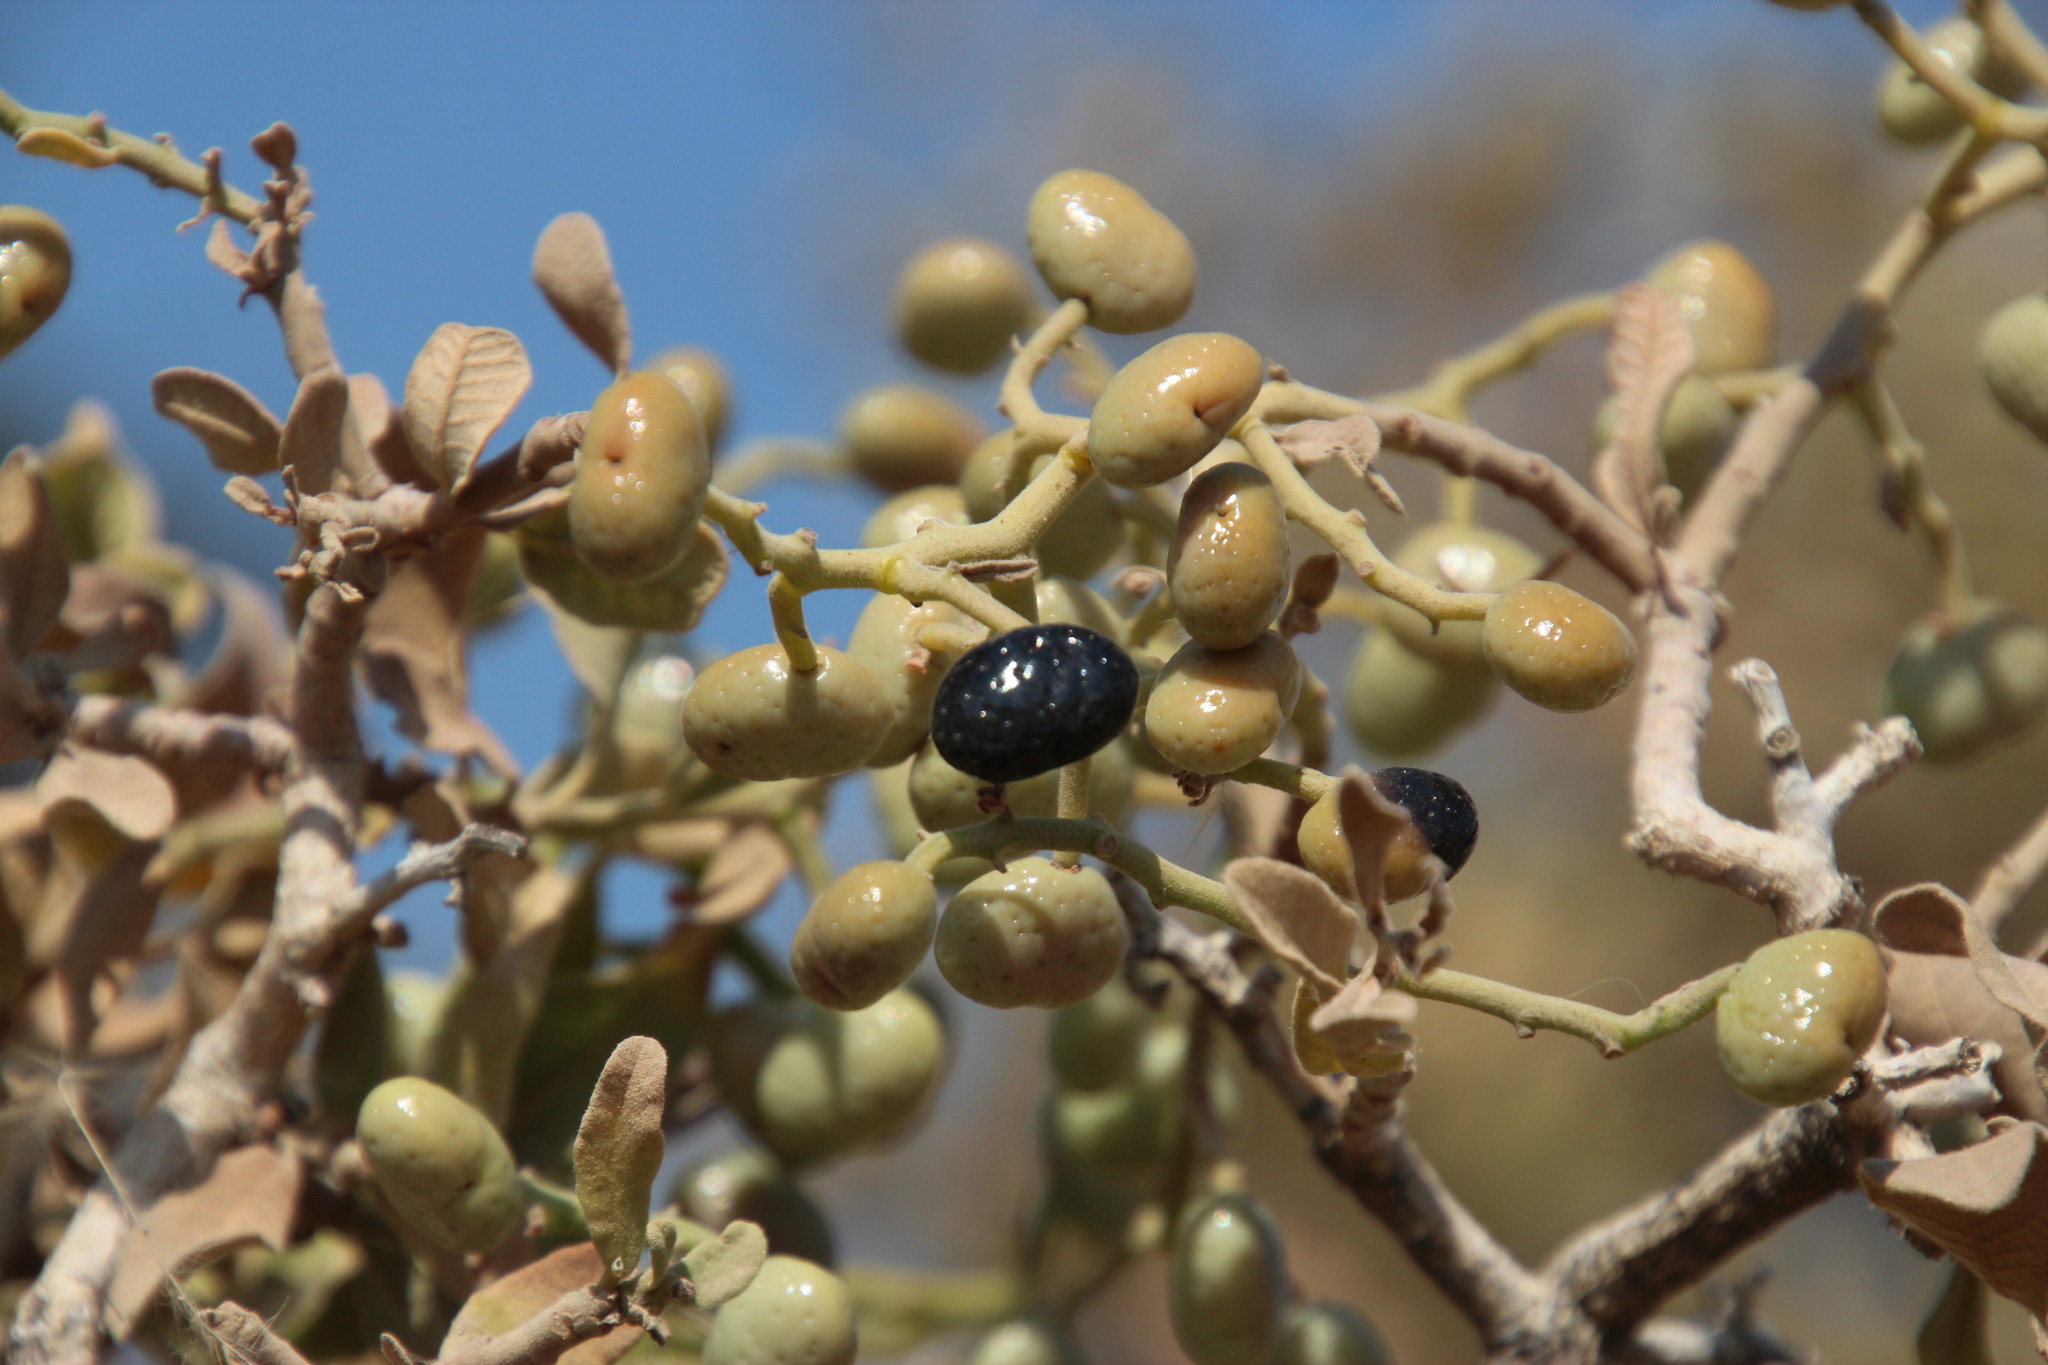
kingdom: Plantae
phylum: Tracheophyta
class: Magnoliopsida
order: Sapindales
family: Anacardiaceae
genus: Ozoroa
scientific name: Ozoroa namaensis
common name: Nama resin tree
